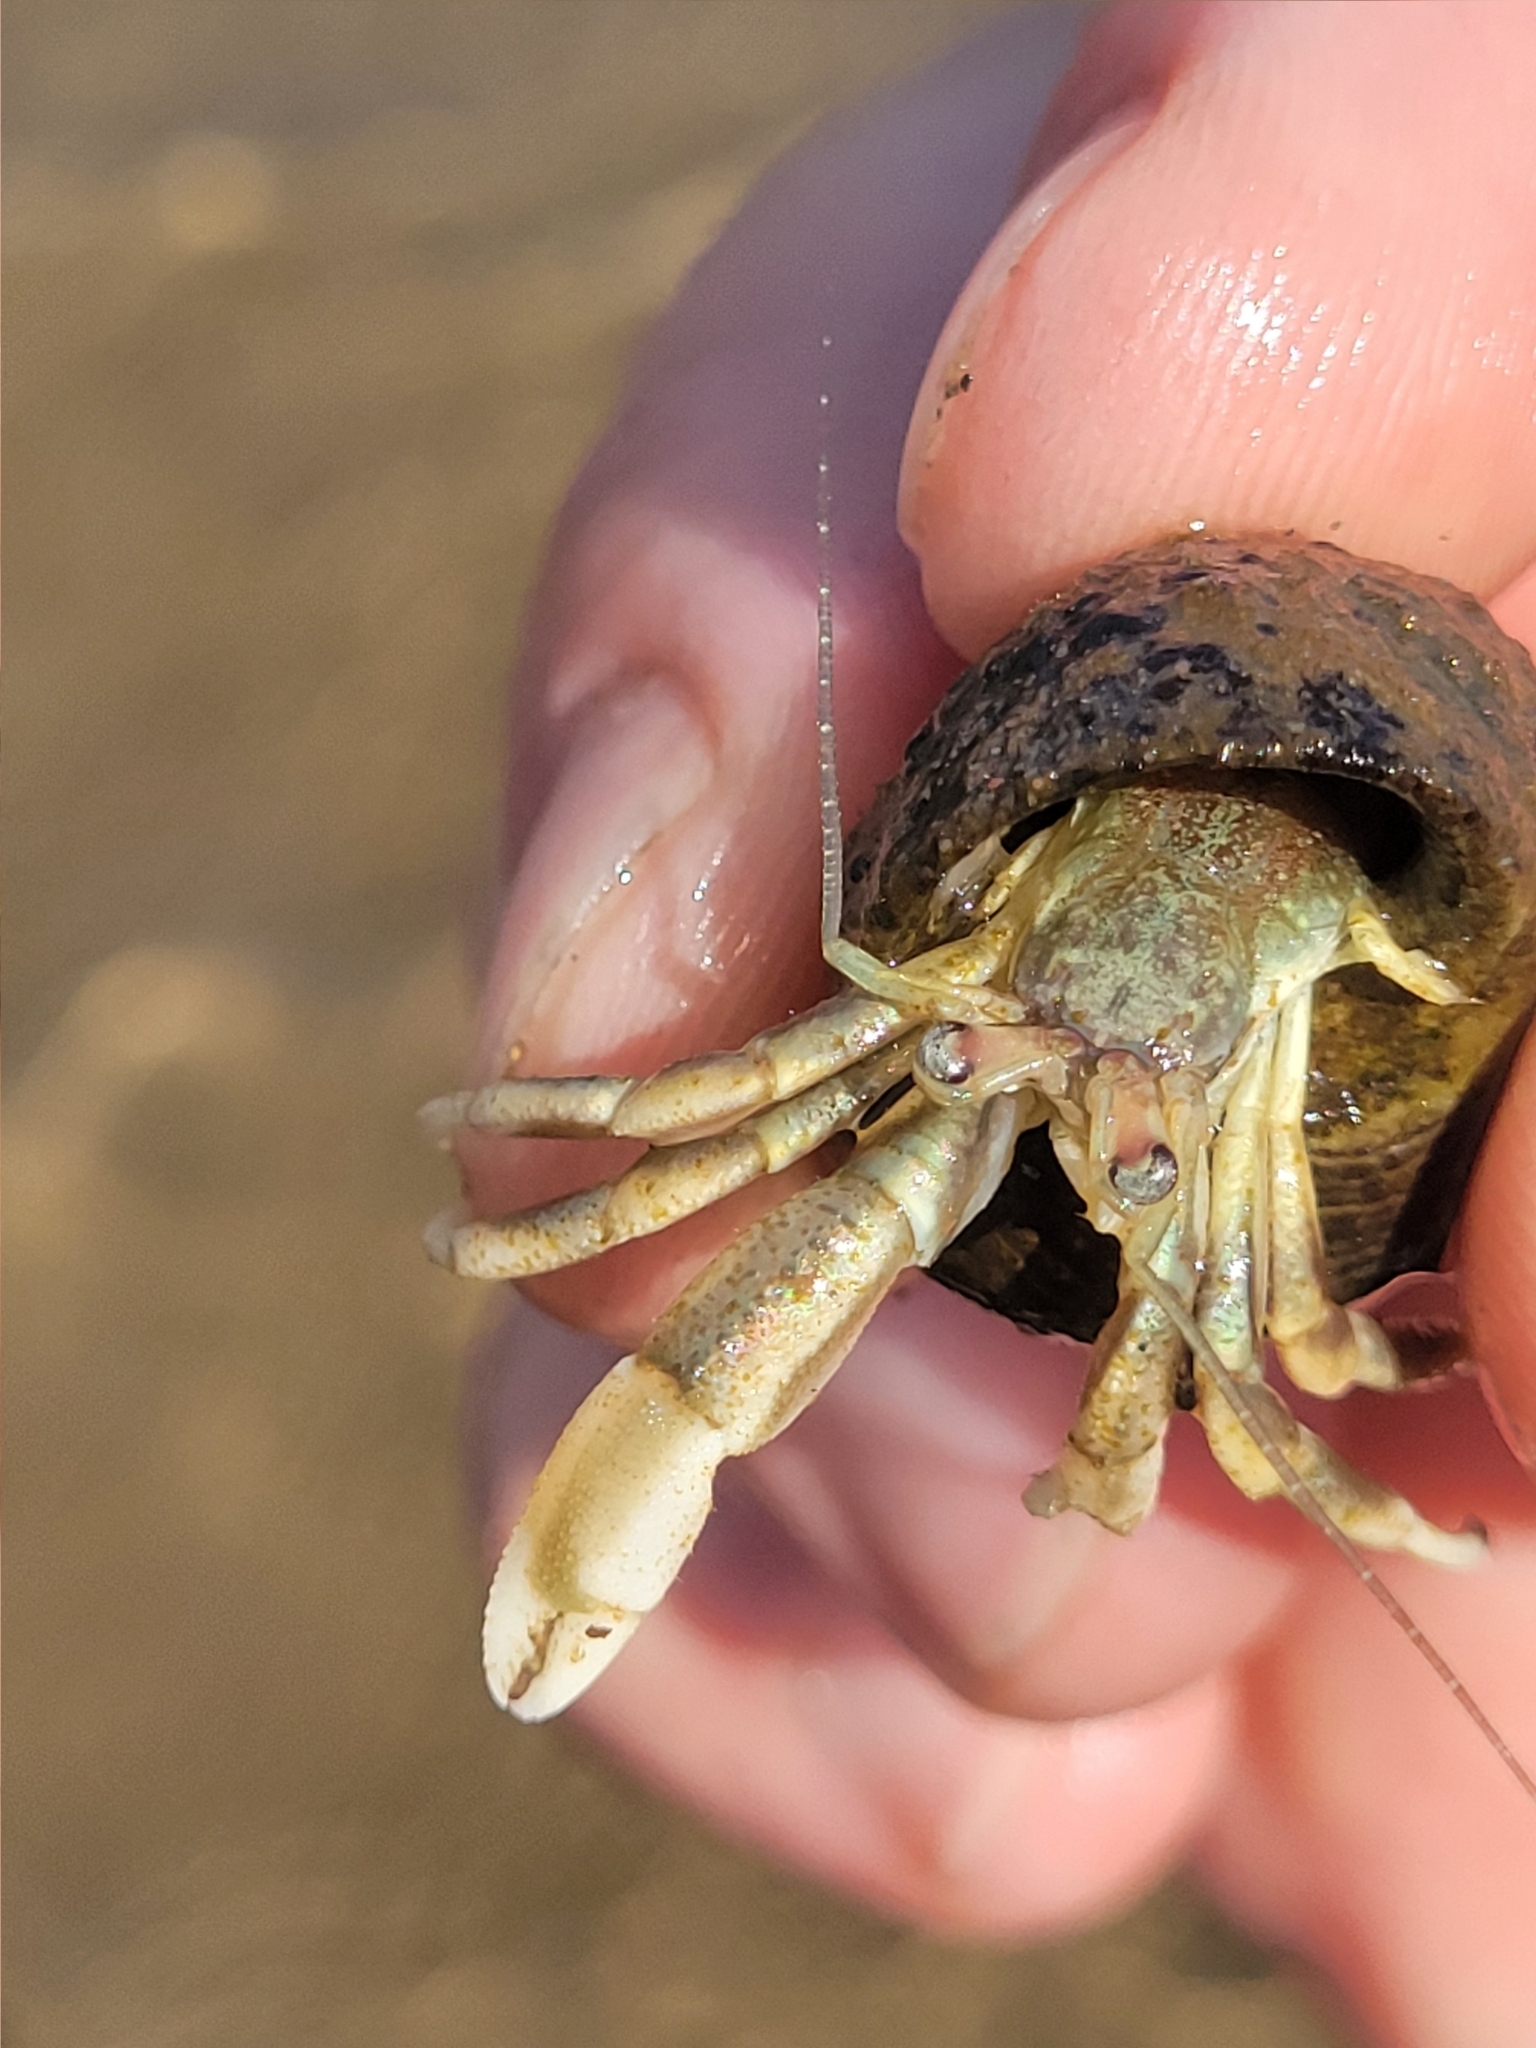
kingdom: Animalia
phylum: Arthropoda
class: Malacostraca
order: Decapoda
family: Paguridae
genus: Pagurus
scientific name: Pagurus longicarpus
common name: Long-armed hermit crab
